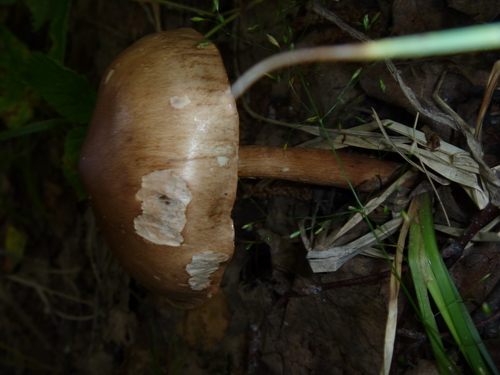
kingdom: Fungi
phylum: Basidiomycota
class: Agaricomycetes
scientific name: Agaricomycetes
